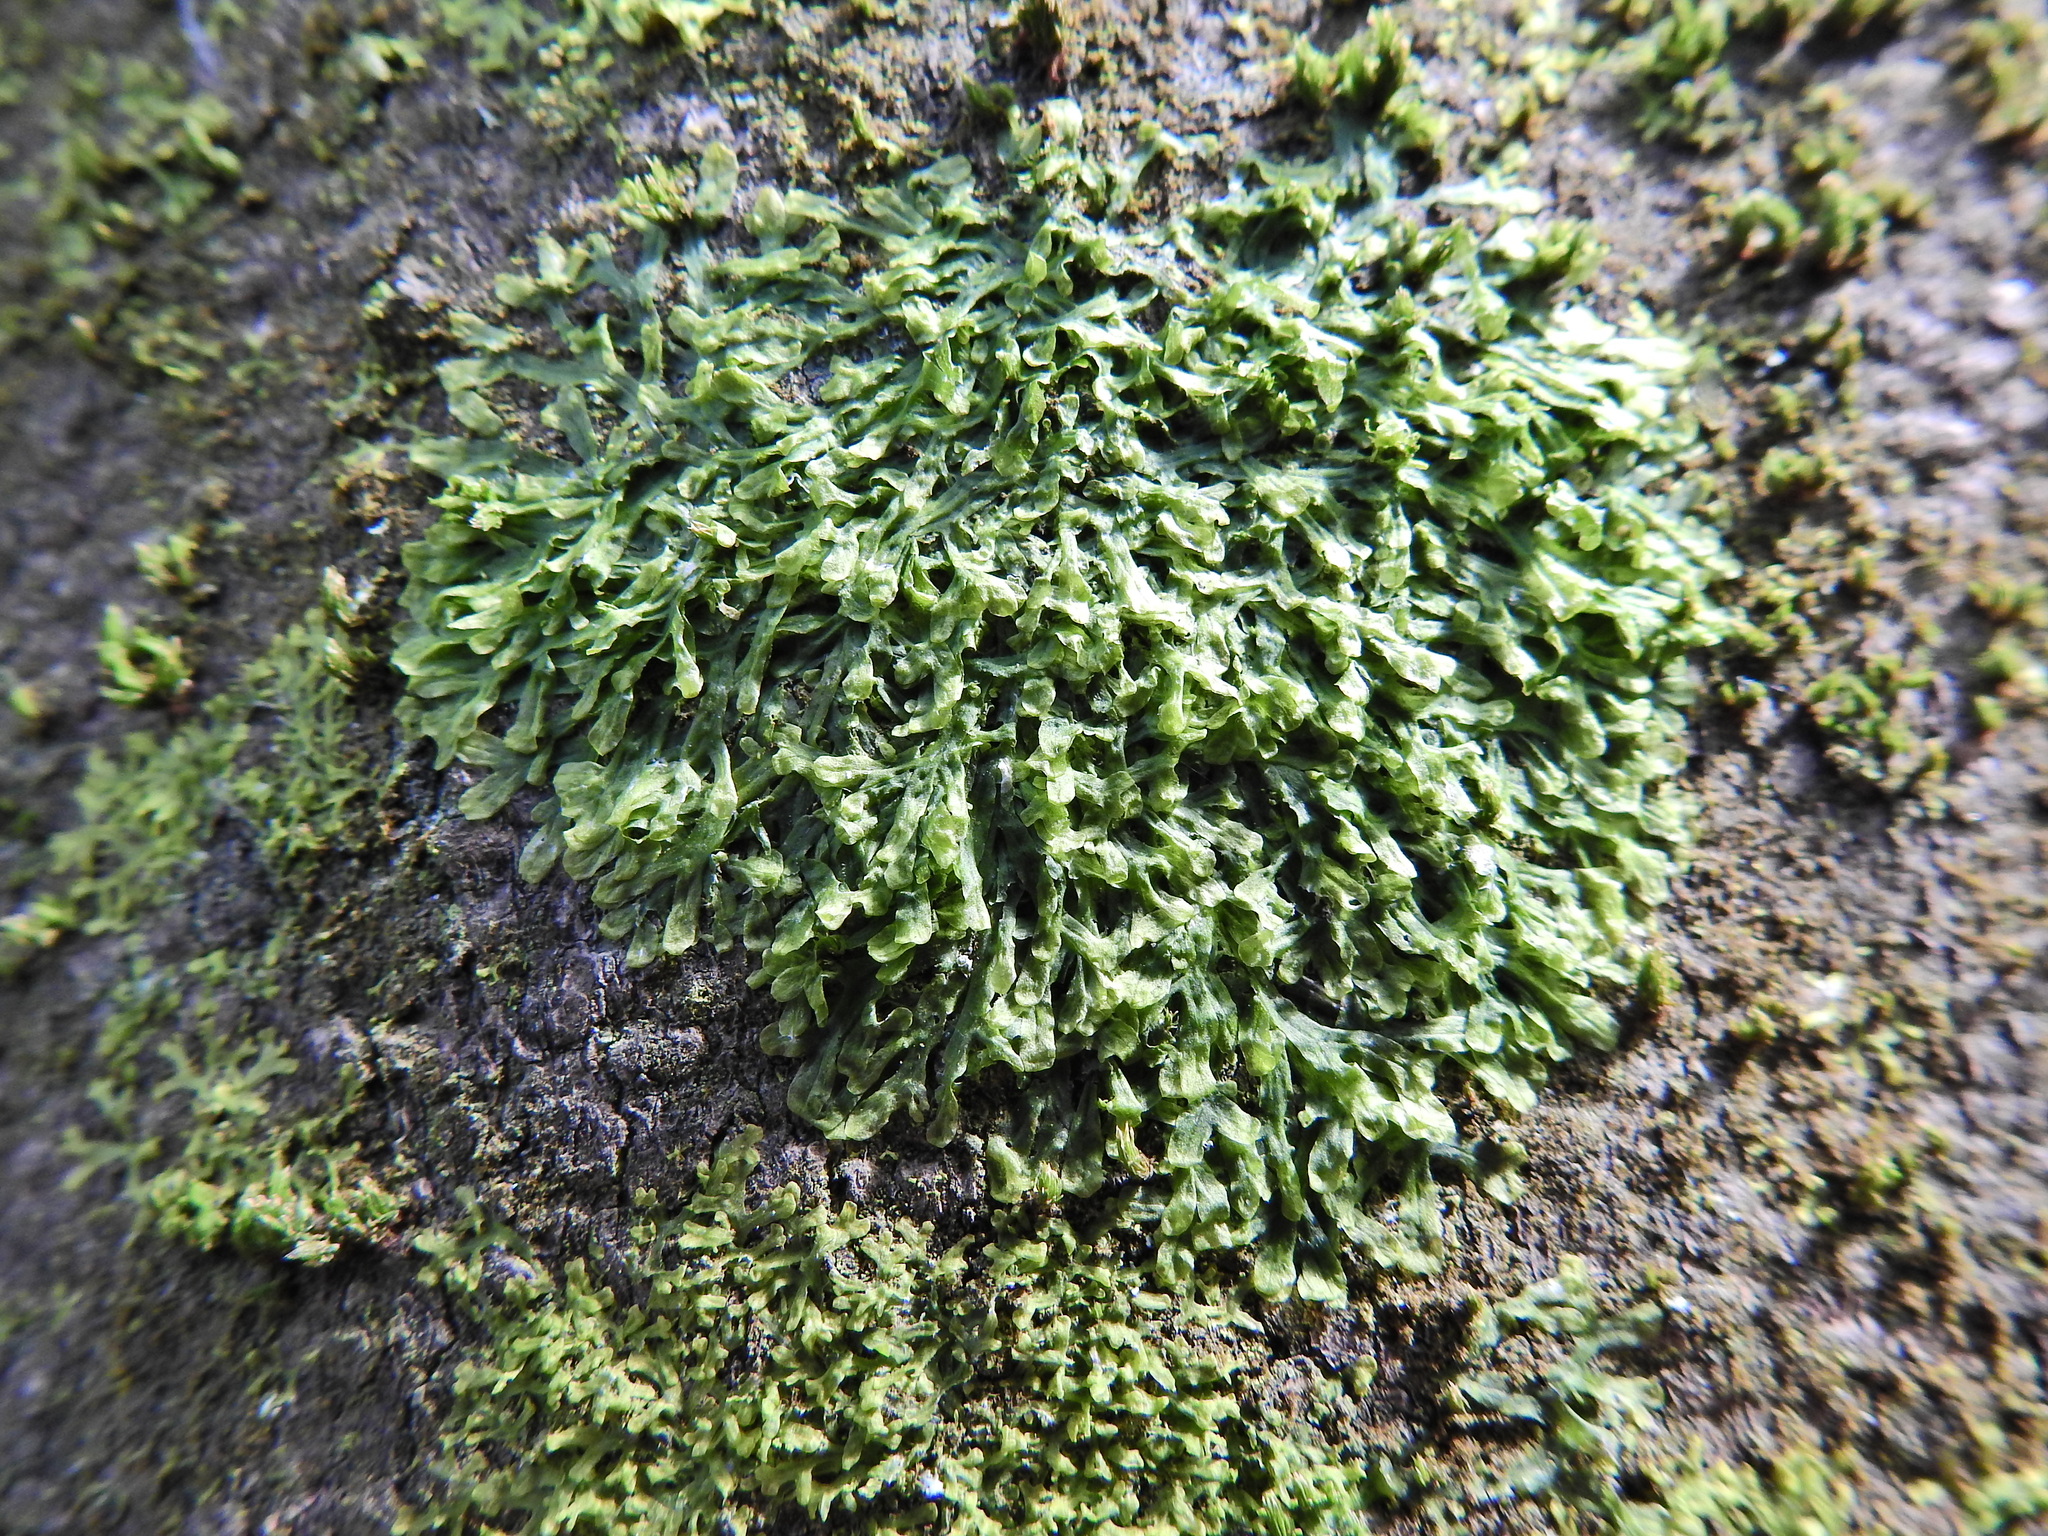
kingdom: Plantae
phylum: Marchantiophyta
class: Jungermanniopsida
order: Metzgeriales
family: Metzgeriaceae
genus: Metzgeria
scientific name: Metzgeria furcata
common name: Forked veilwort
